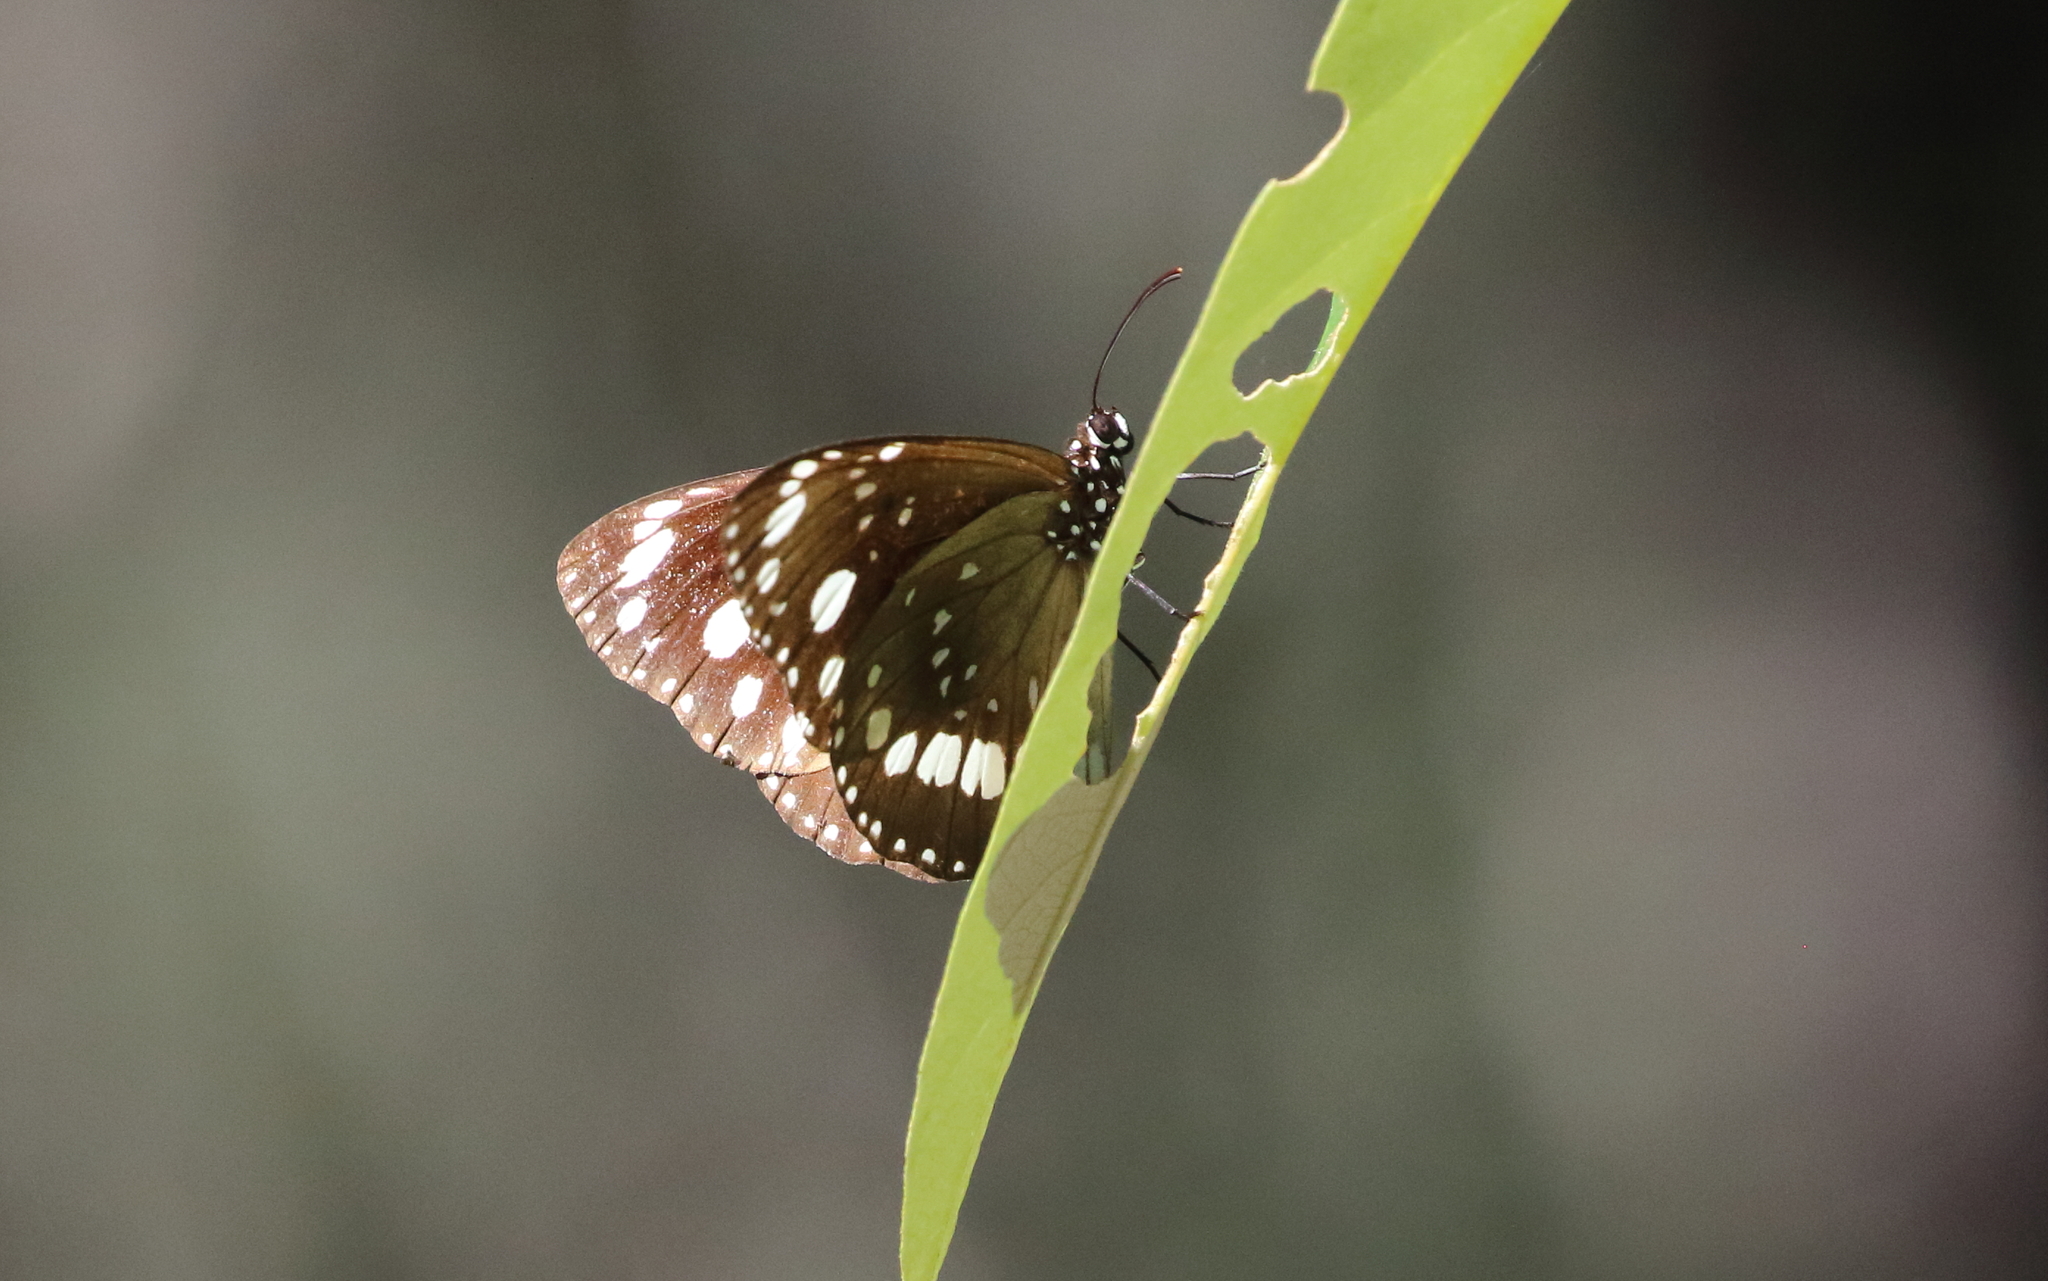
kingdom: Animalia
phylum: Arthropoda
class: Insecta
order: Lepidoptera
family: Nymphalidae
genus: Euploea
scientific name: Euploea core
